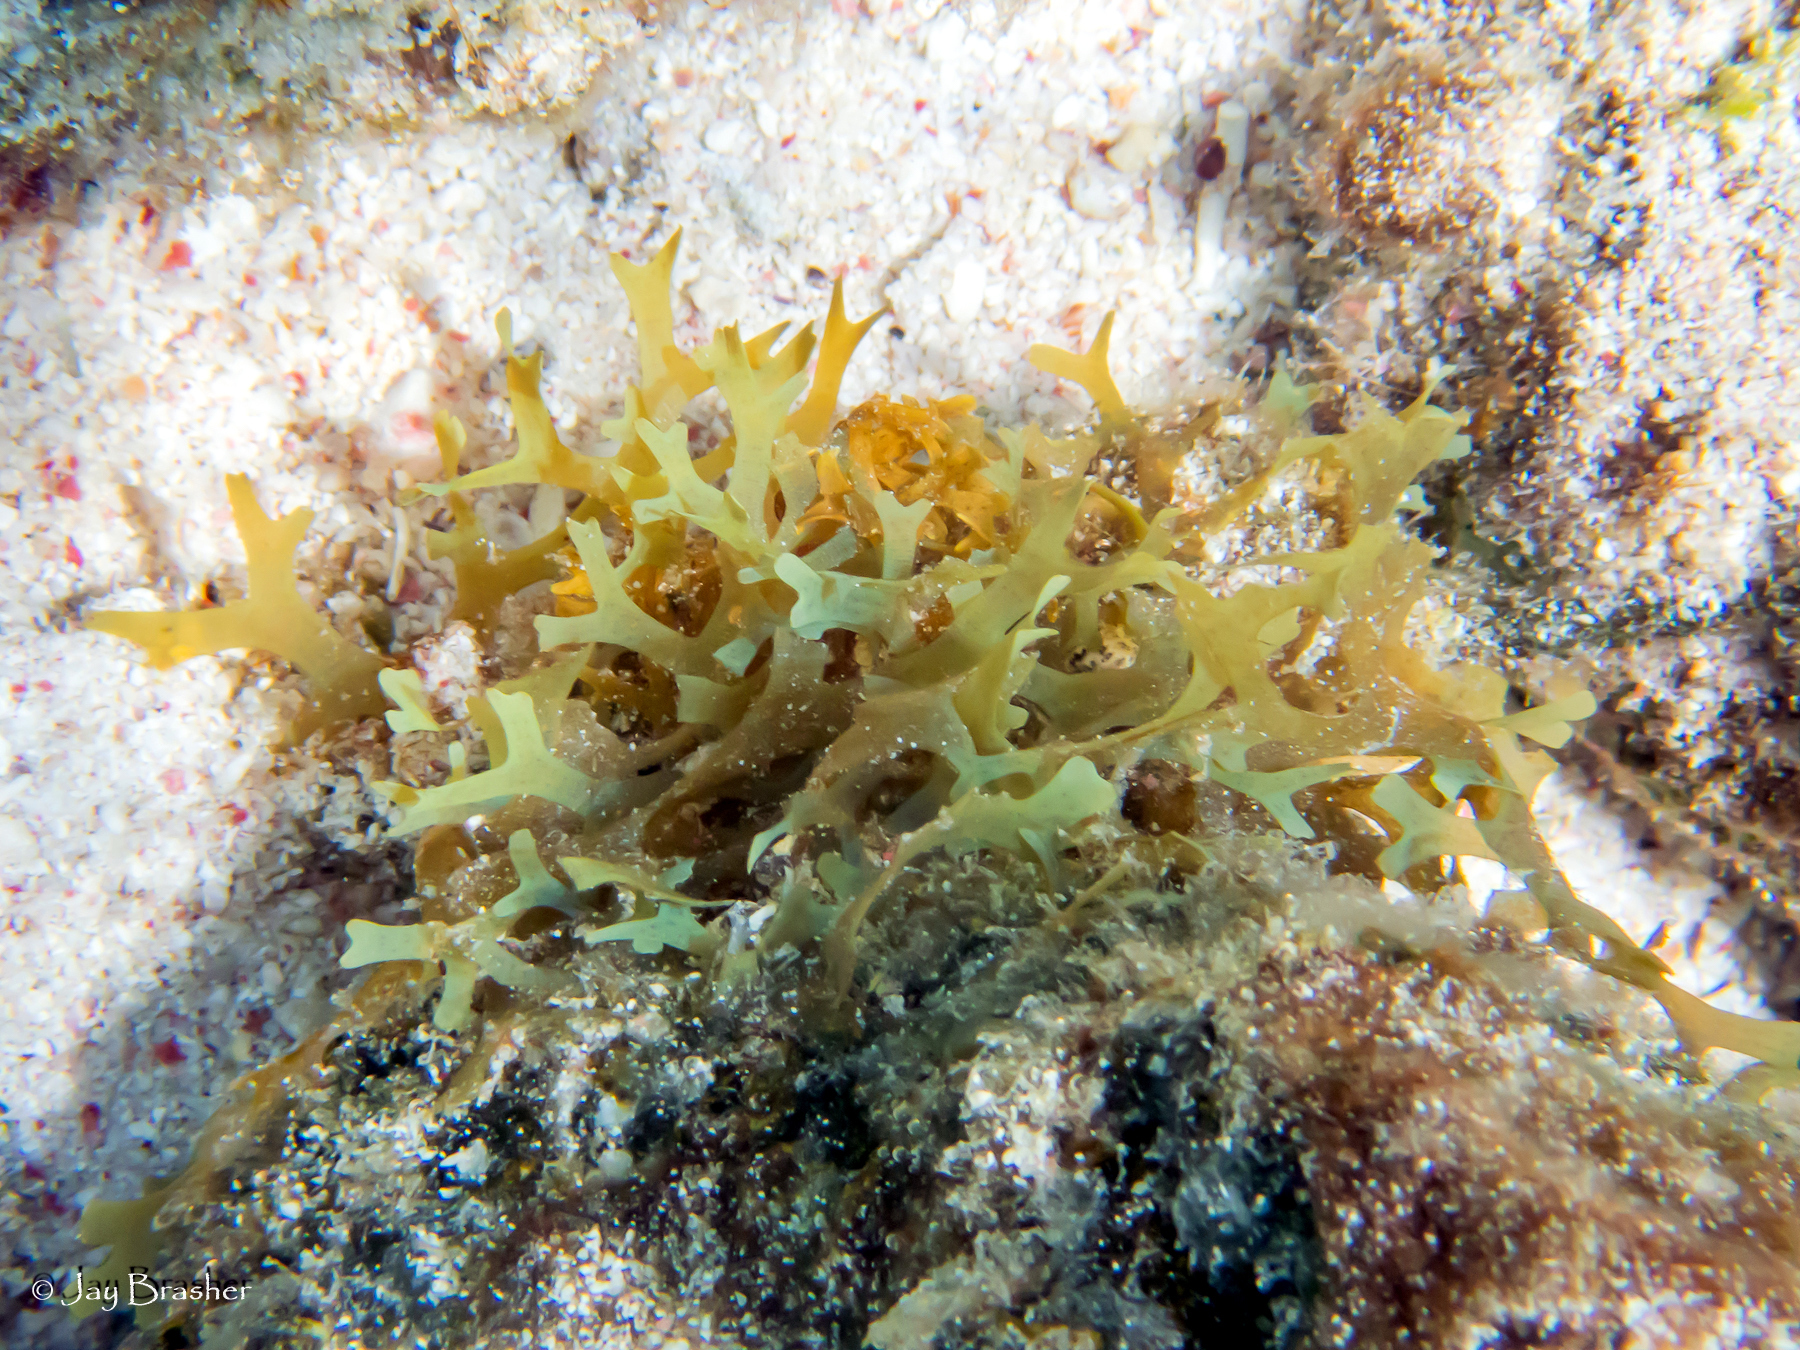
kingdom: Chromista
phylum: Ochrophyta
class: Phaeophyceae
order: Dictyotales
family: Dictyotaceae
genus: Dictyota
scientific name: Dictyota dichotoma
